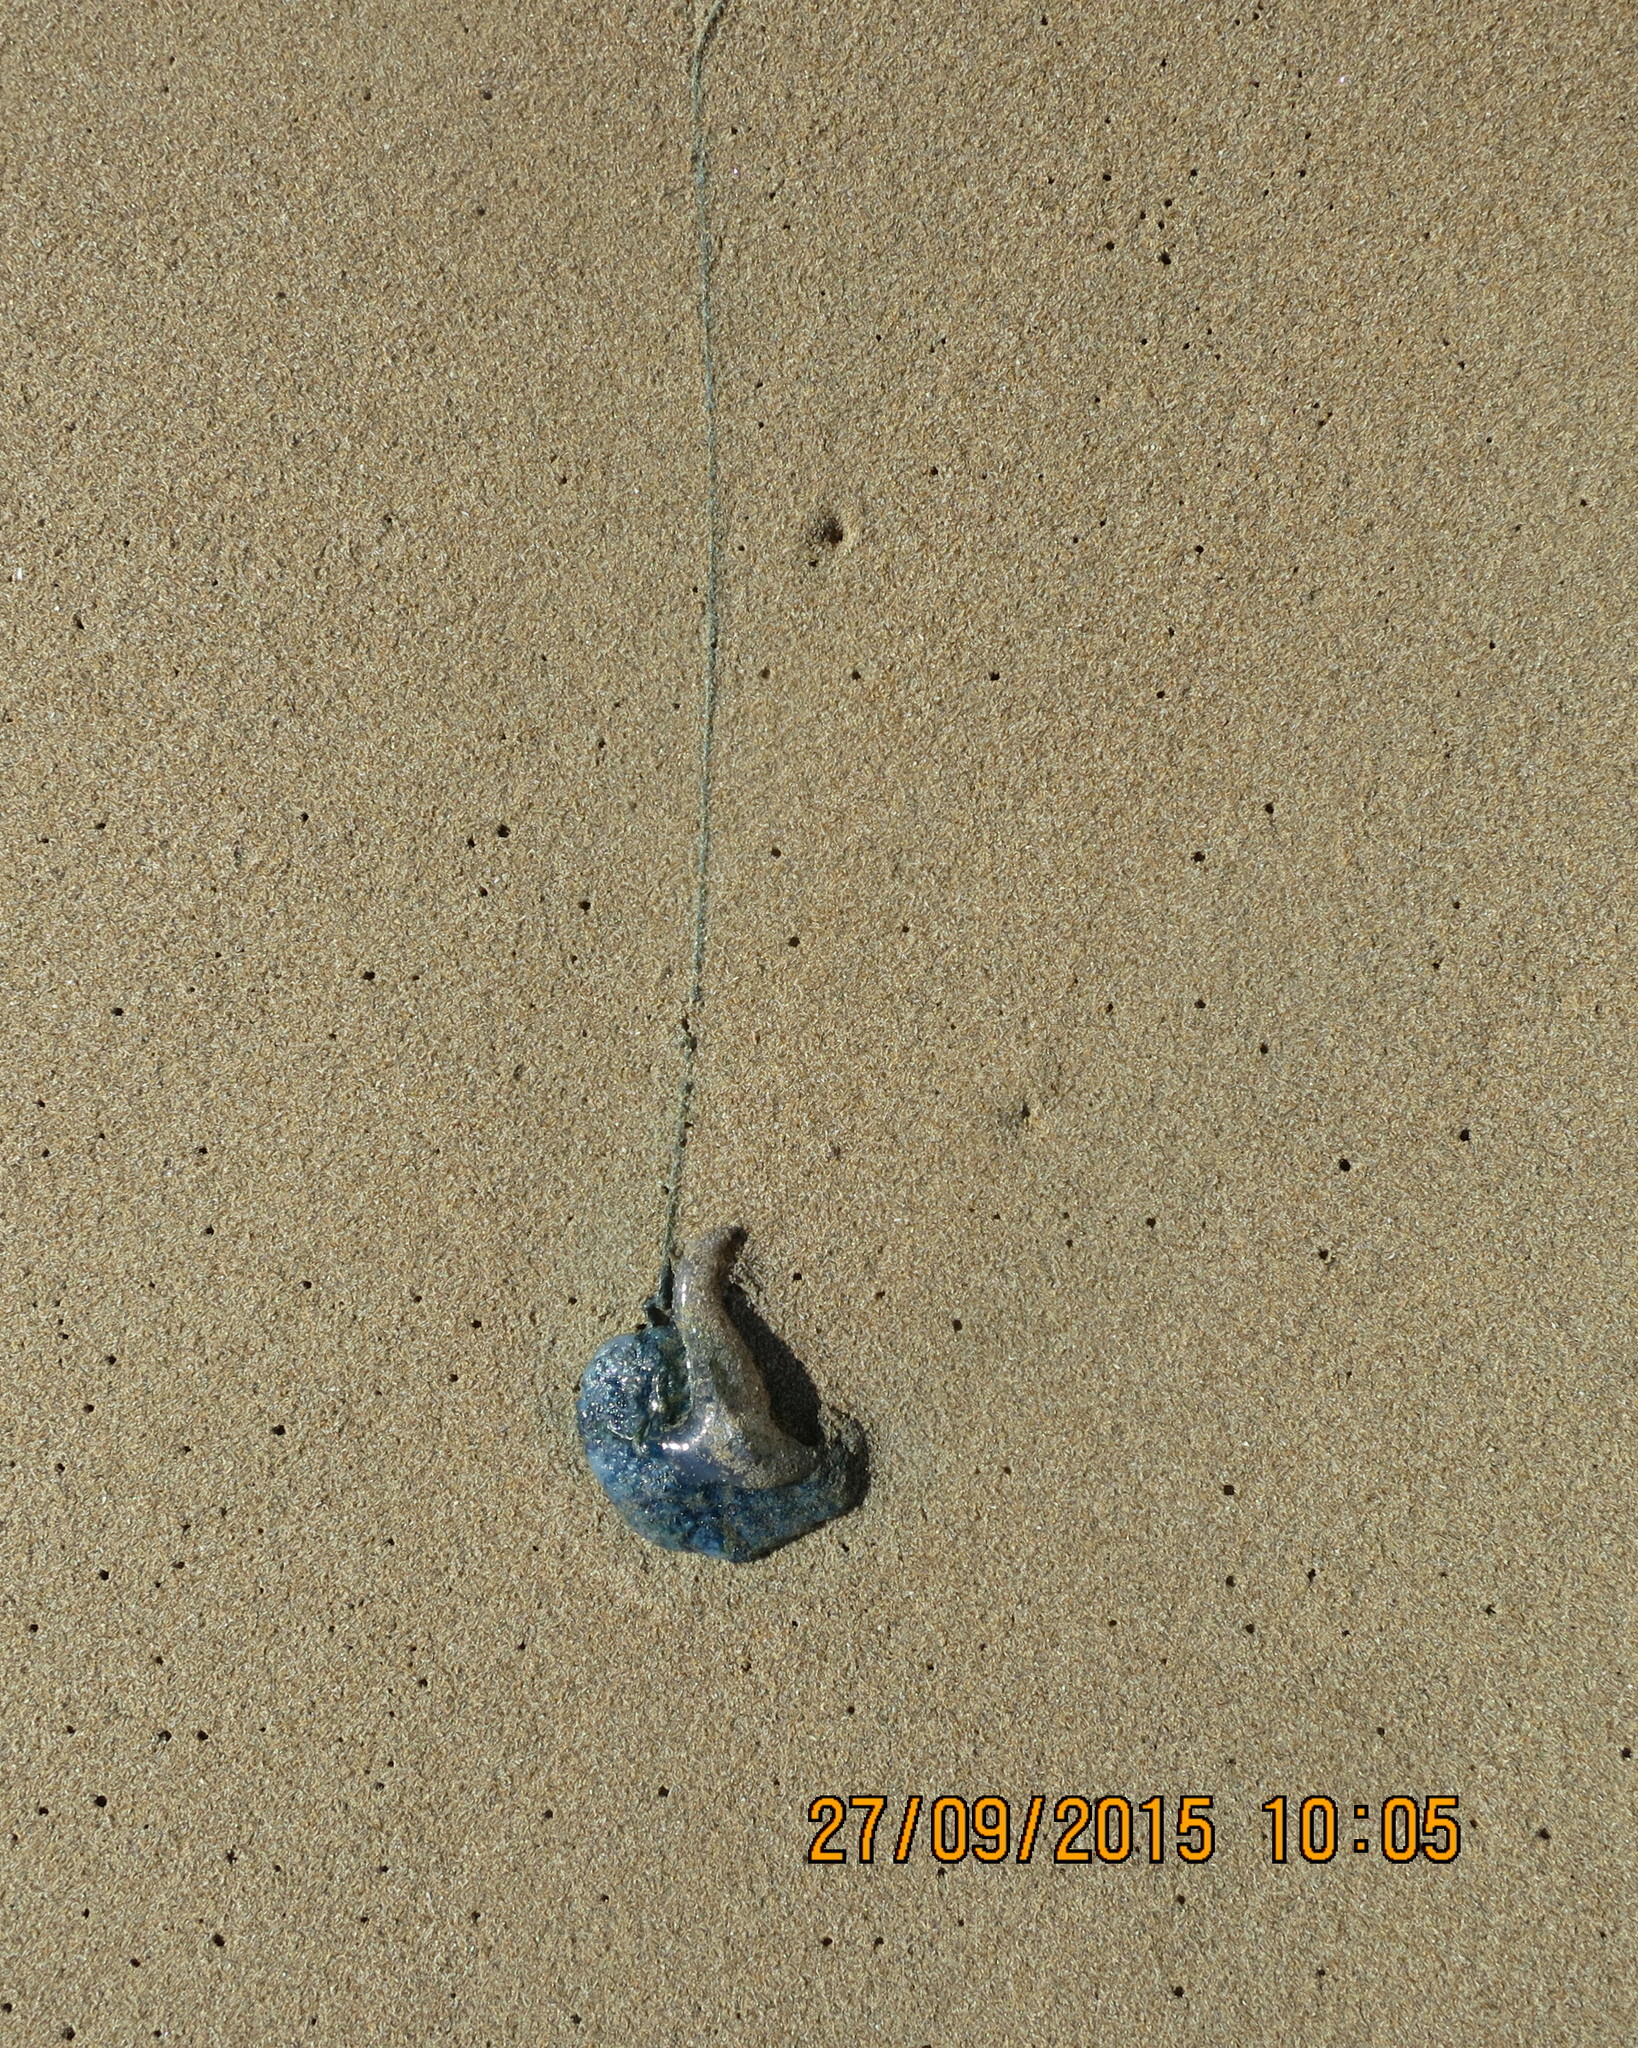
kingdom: Animalia
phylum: Cnidaria
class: Hydrozoa
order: Siphonophorae
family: Physaliidae
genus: Physalia
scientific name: Physalia physalis
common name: Portuguese man-of-war
